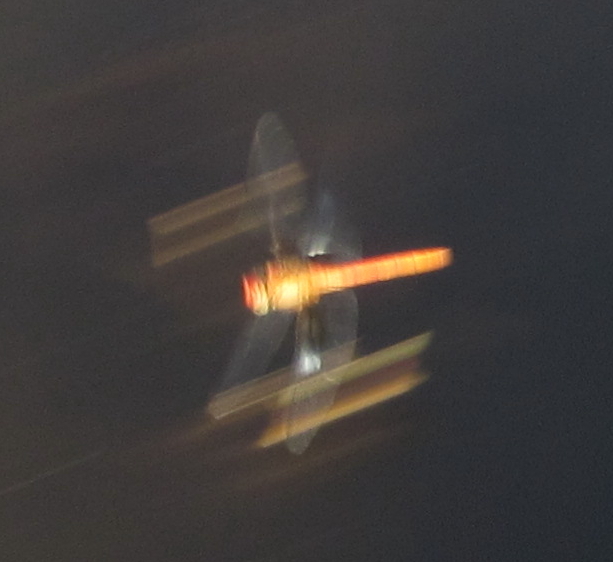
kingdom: Animalia
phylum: Arthropoda
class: Insecta
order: Odonata
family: Libellulidae
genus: Tholymis
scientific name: Tholymis tillarga
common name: Coral-tailed cloud wing
